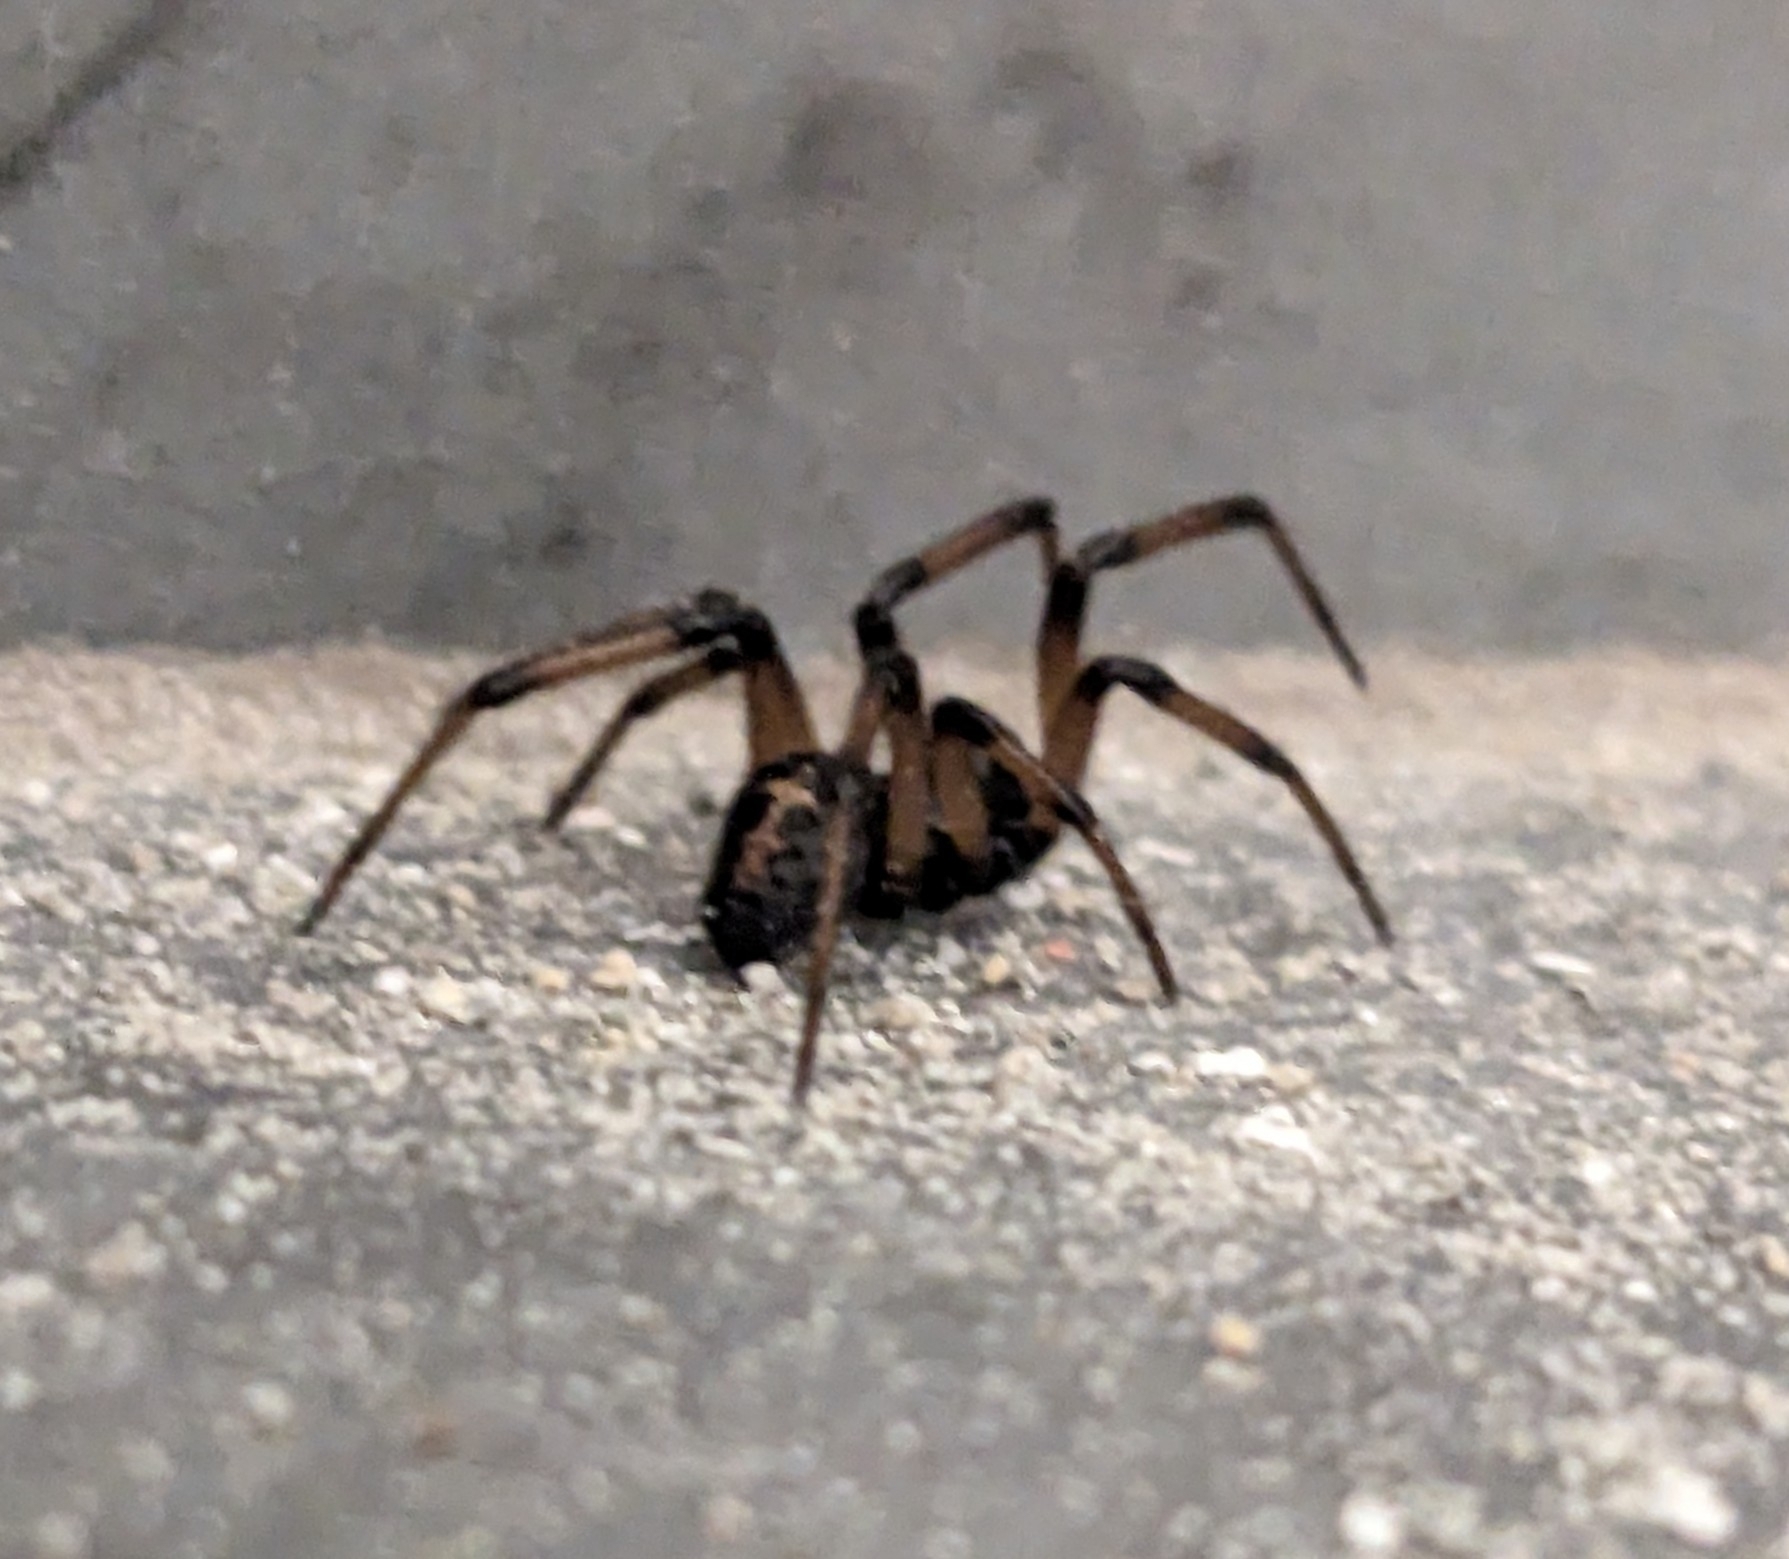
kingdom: Animalia
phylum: Arthropoda
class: Arachnida
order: Araneae
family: Theridiidae
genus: Steatoda
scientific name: Steatoda paykulliana
